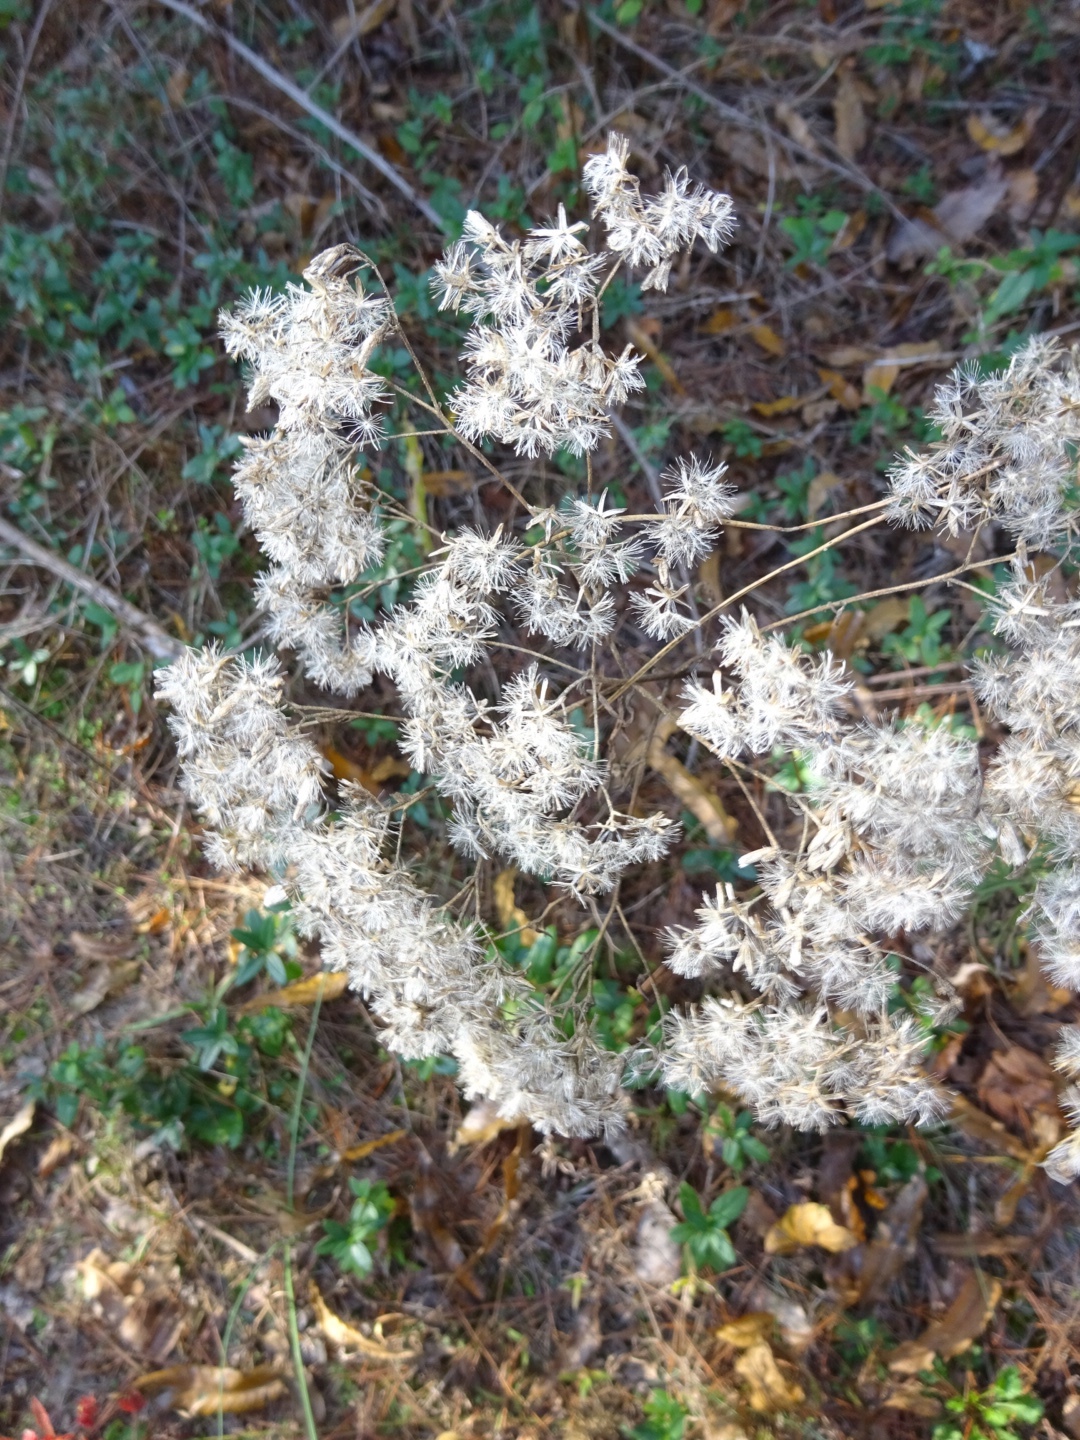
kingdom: Plantae
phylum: Tracheophyta
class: Magnoliopsida
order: Asterales
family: Asteraceae
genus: Eupatorium
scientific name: Eupatorium torreyanum
